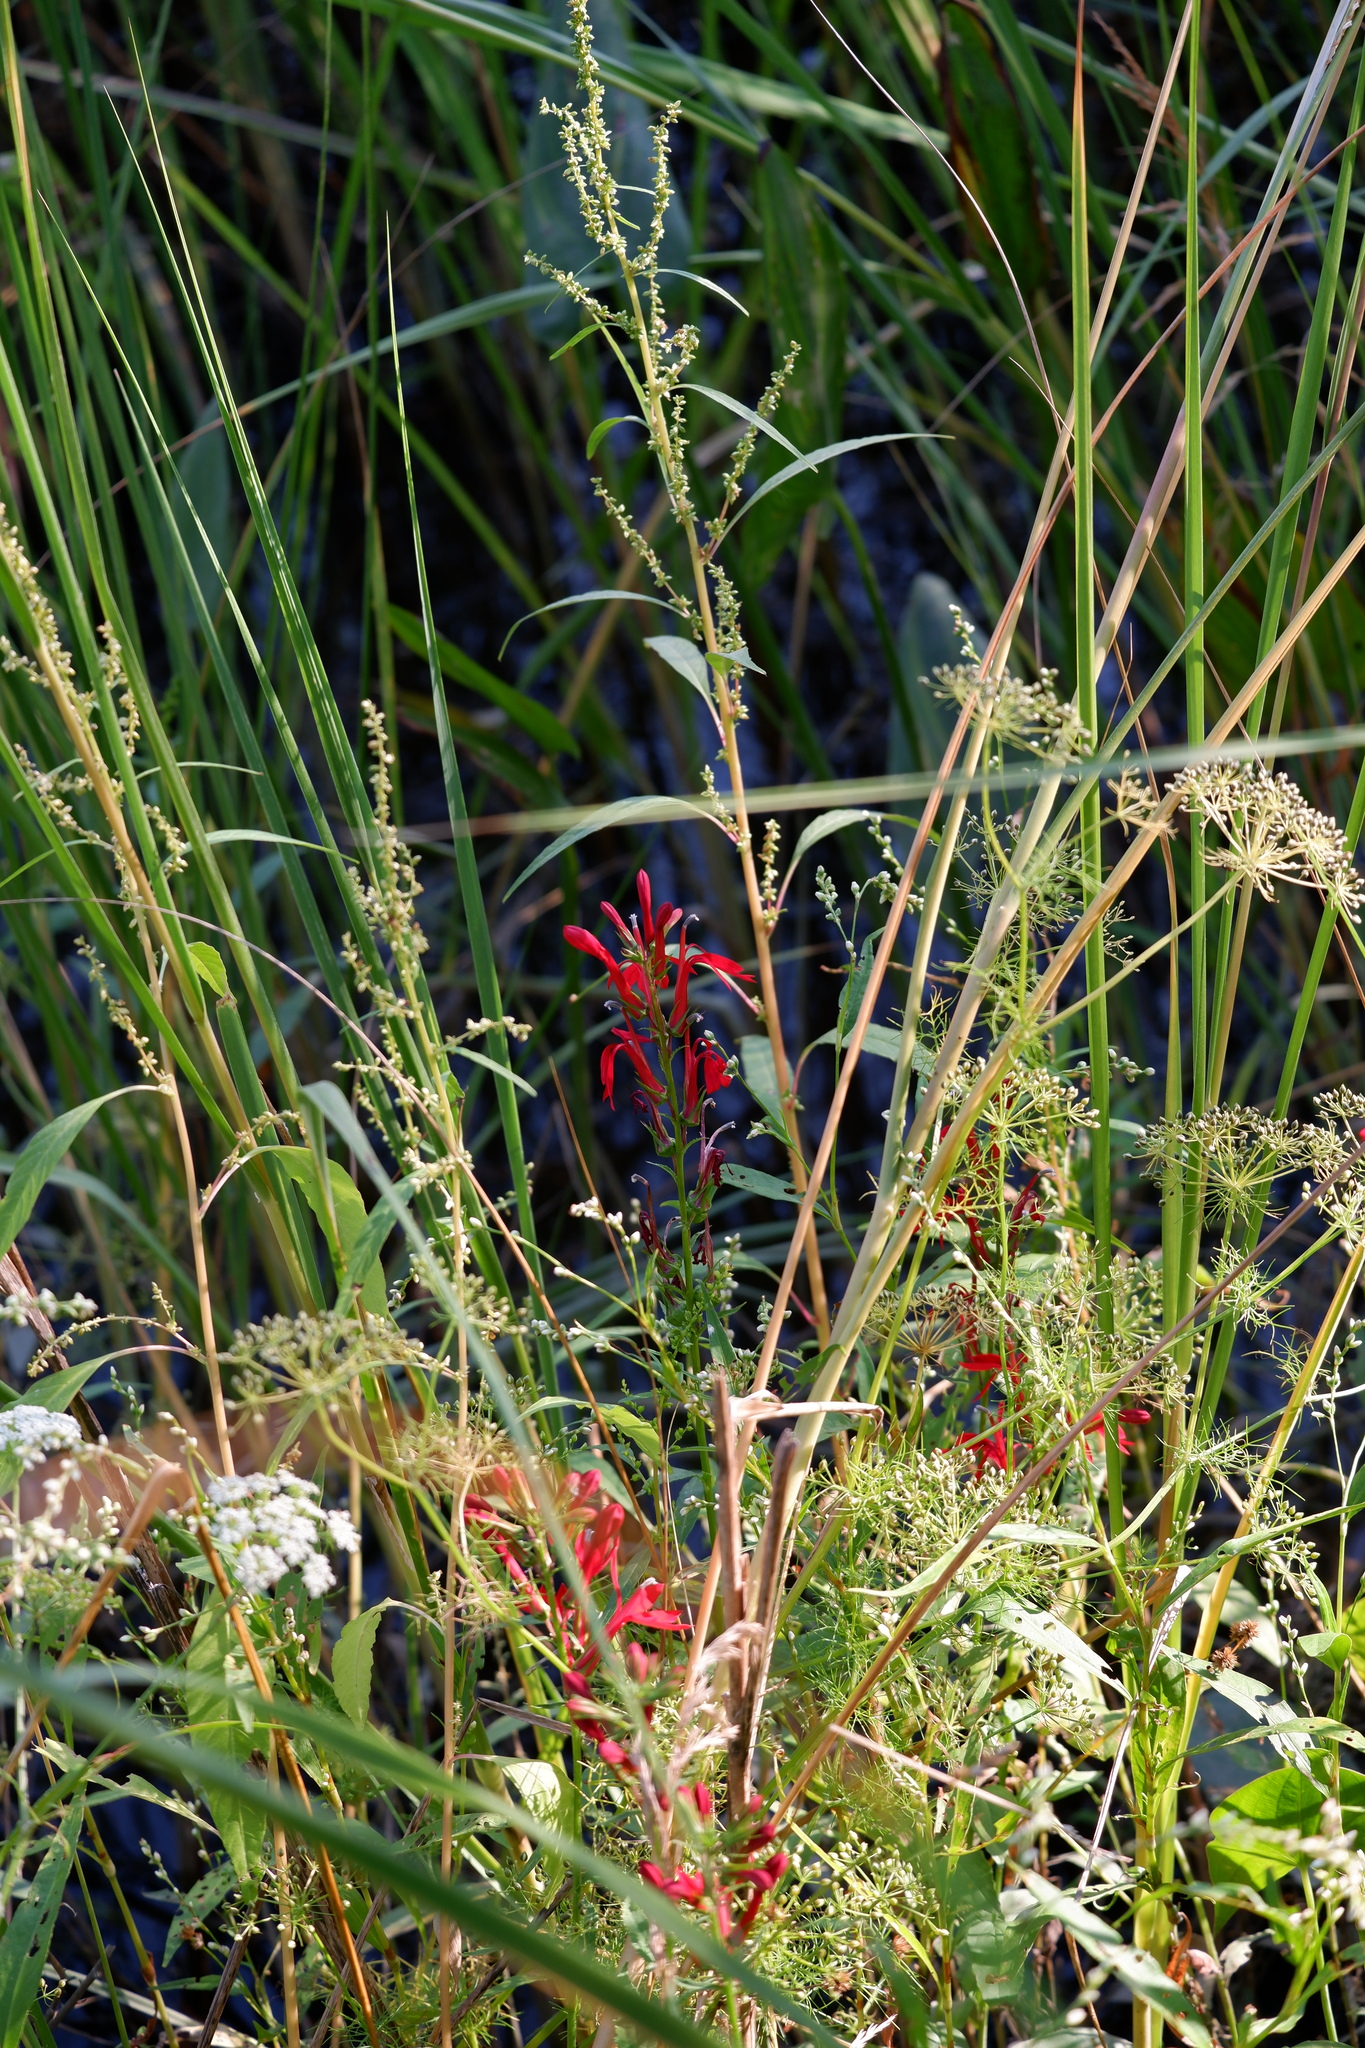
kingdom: Plantae
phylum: Tracheophyta
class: Magnoliopsida
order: Asterales
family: Campanulaceae
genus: Lobelia
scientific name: Lobelia cardinalis
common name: Cardinal flower
